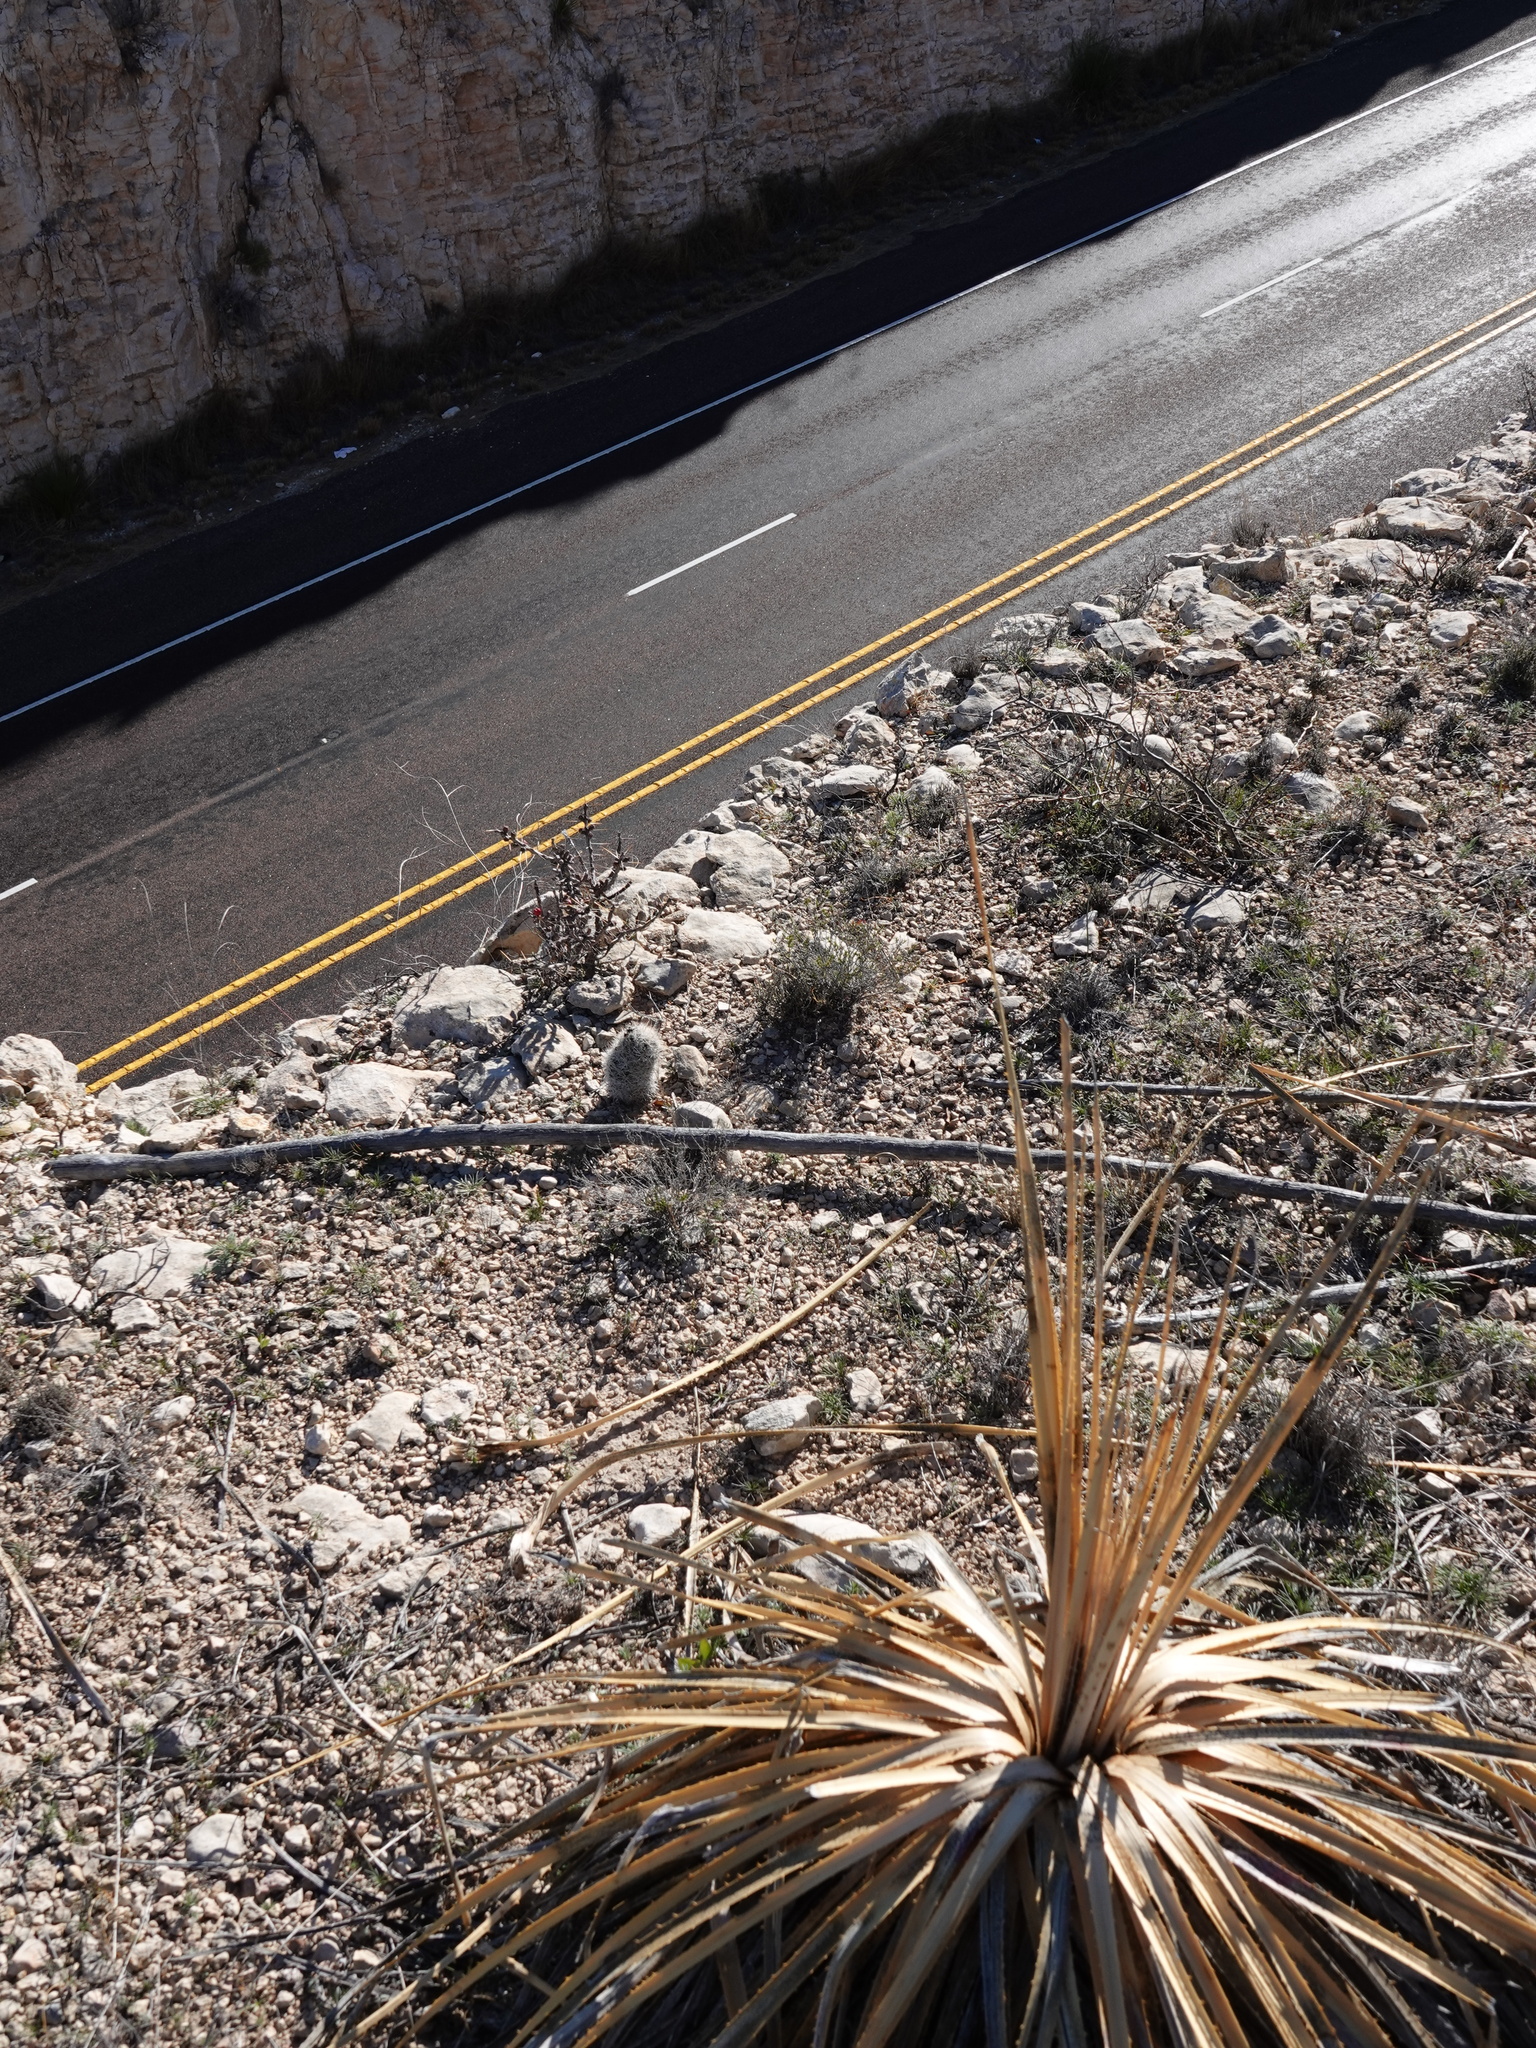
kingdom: Plantae
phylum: Tracheophyta
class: Magnoliopsida
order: Caryophyllales
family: Cactaceae
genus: Pelecyphora
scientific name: Pelecyphora tuberculosa
